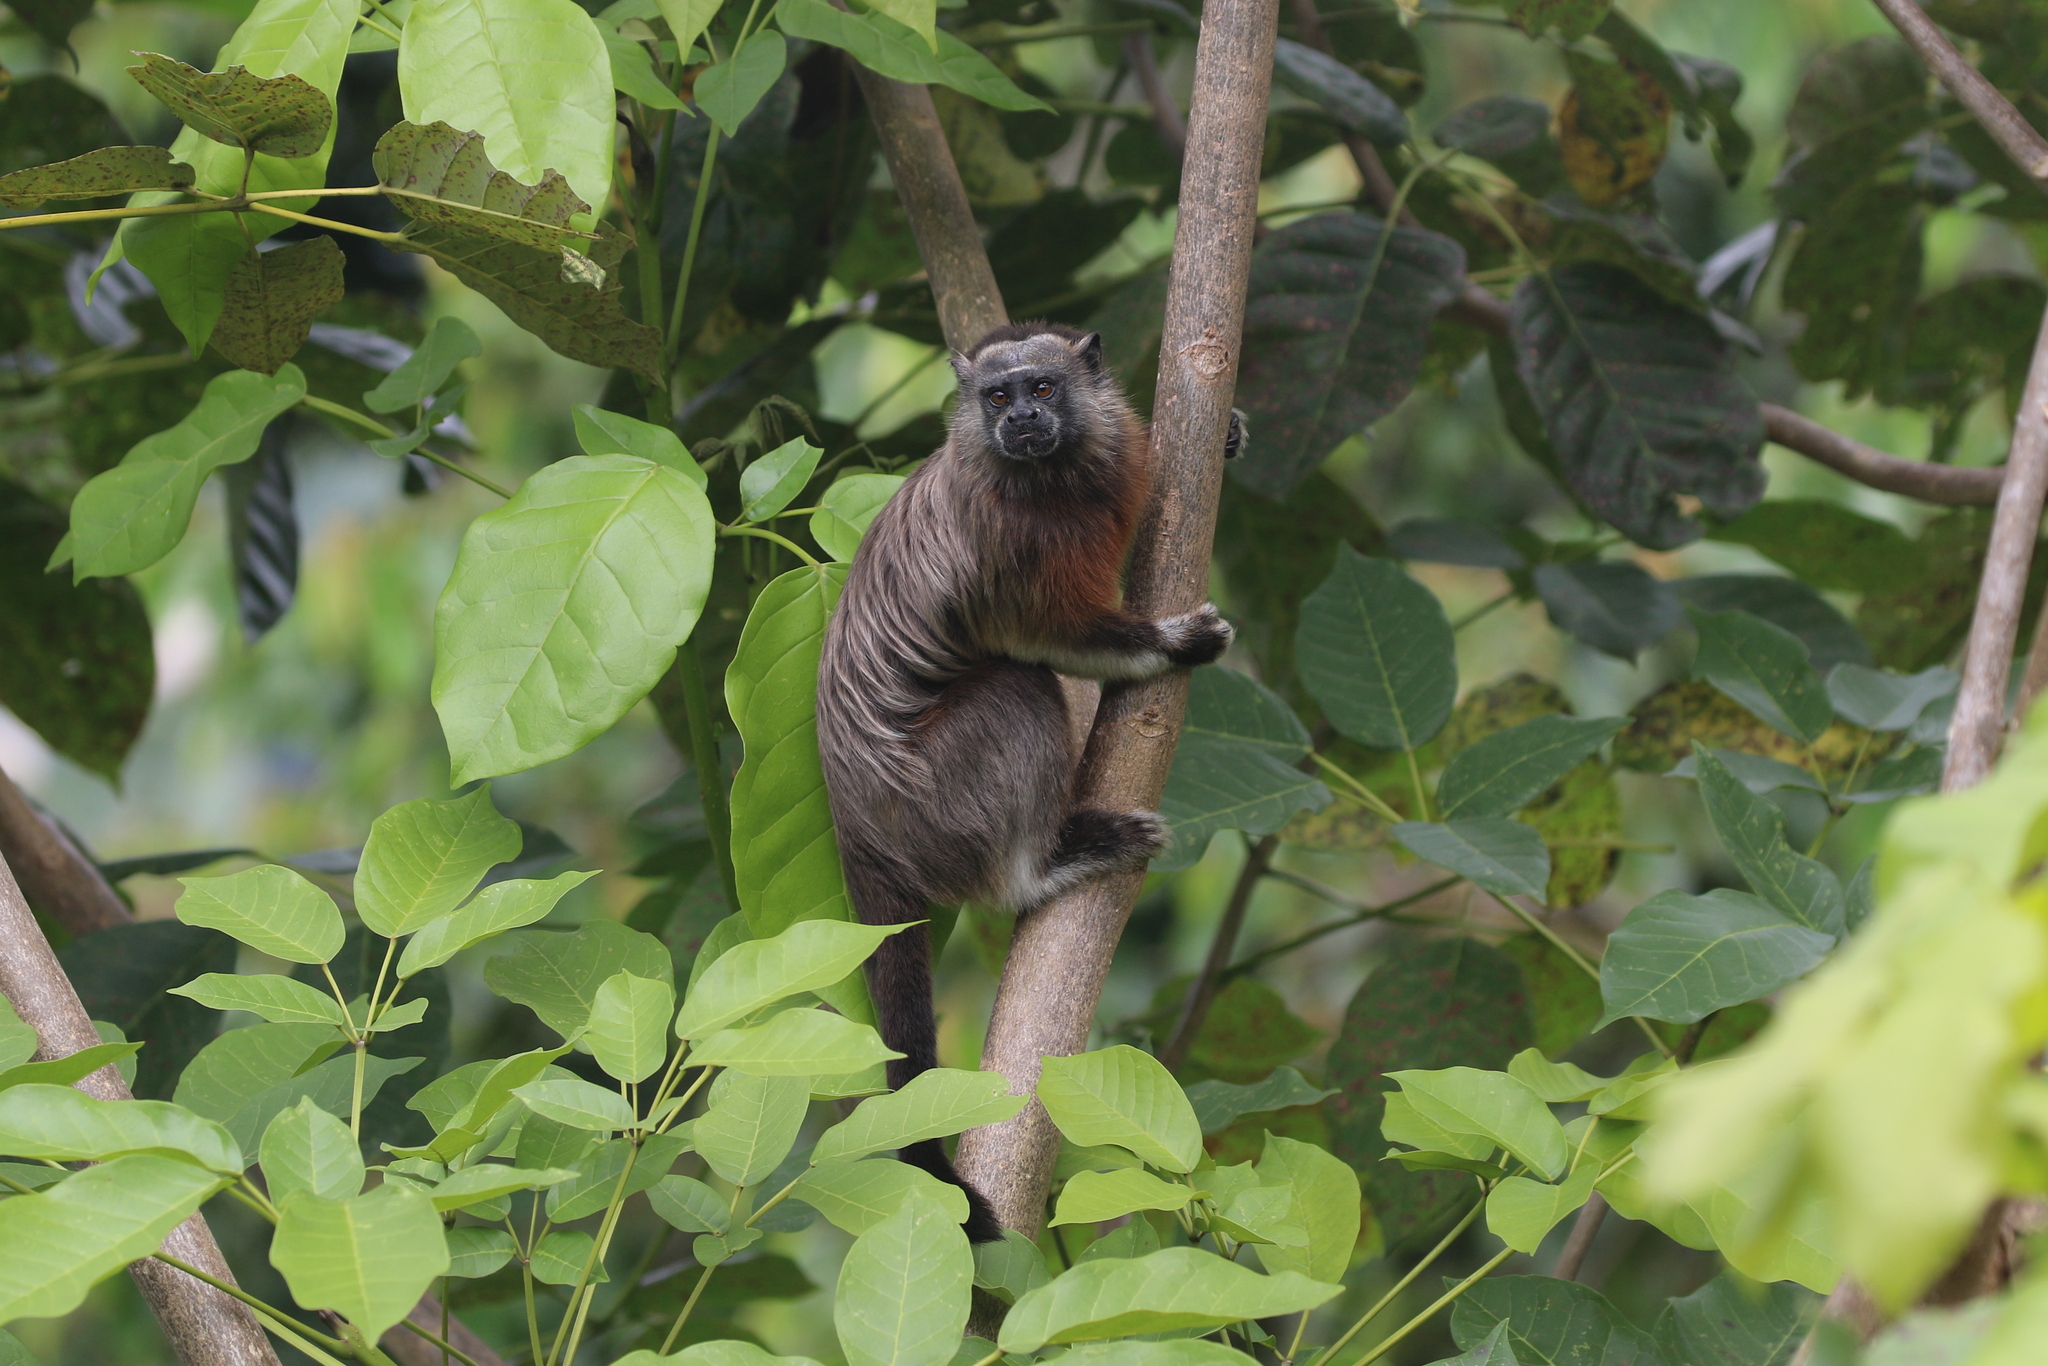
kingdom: Animalia
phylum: Chordata
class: Mammalia
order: Primates
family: Callitrichidae
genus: Saguinus
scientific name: Saguinus leucopus
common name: White-footed tamarin
